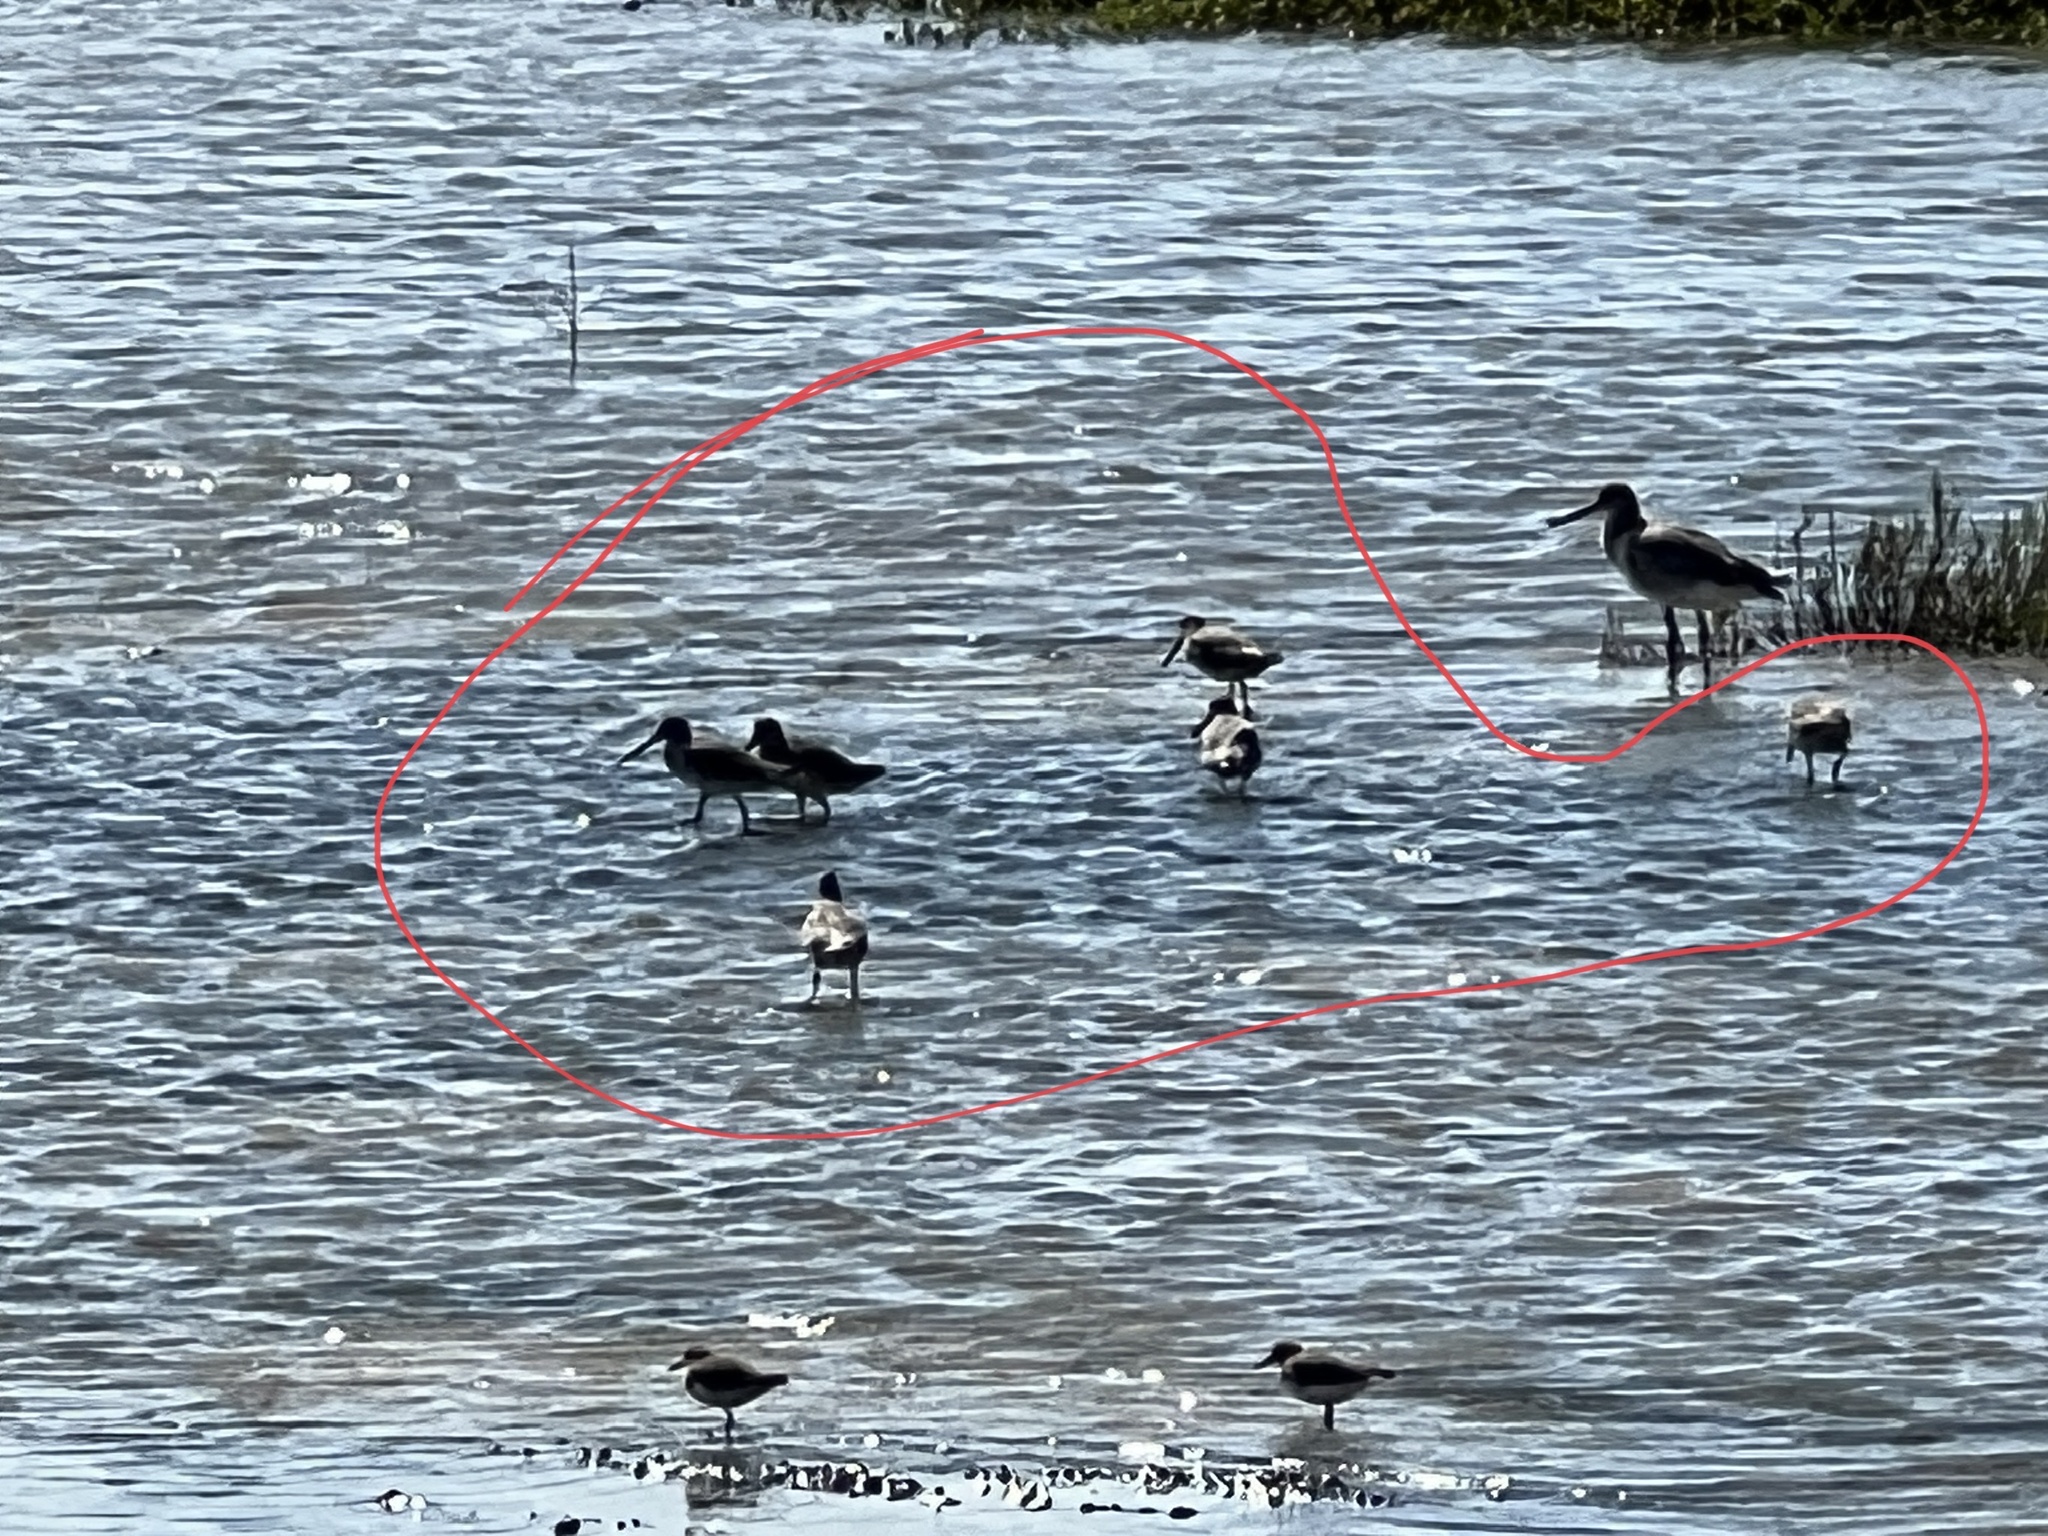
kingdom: Animalia
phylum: Chordata
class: Aves
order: Charadriiformes
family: Scolopacidae
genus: Tringa
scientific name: Tringa semipalmata
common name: Willet
